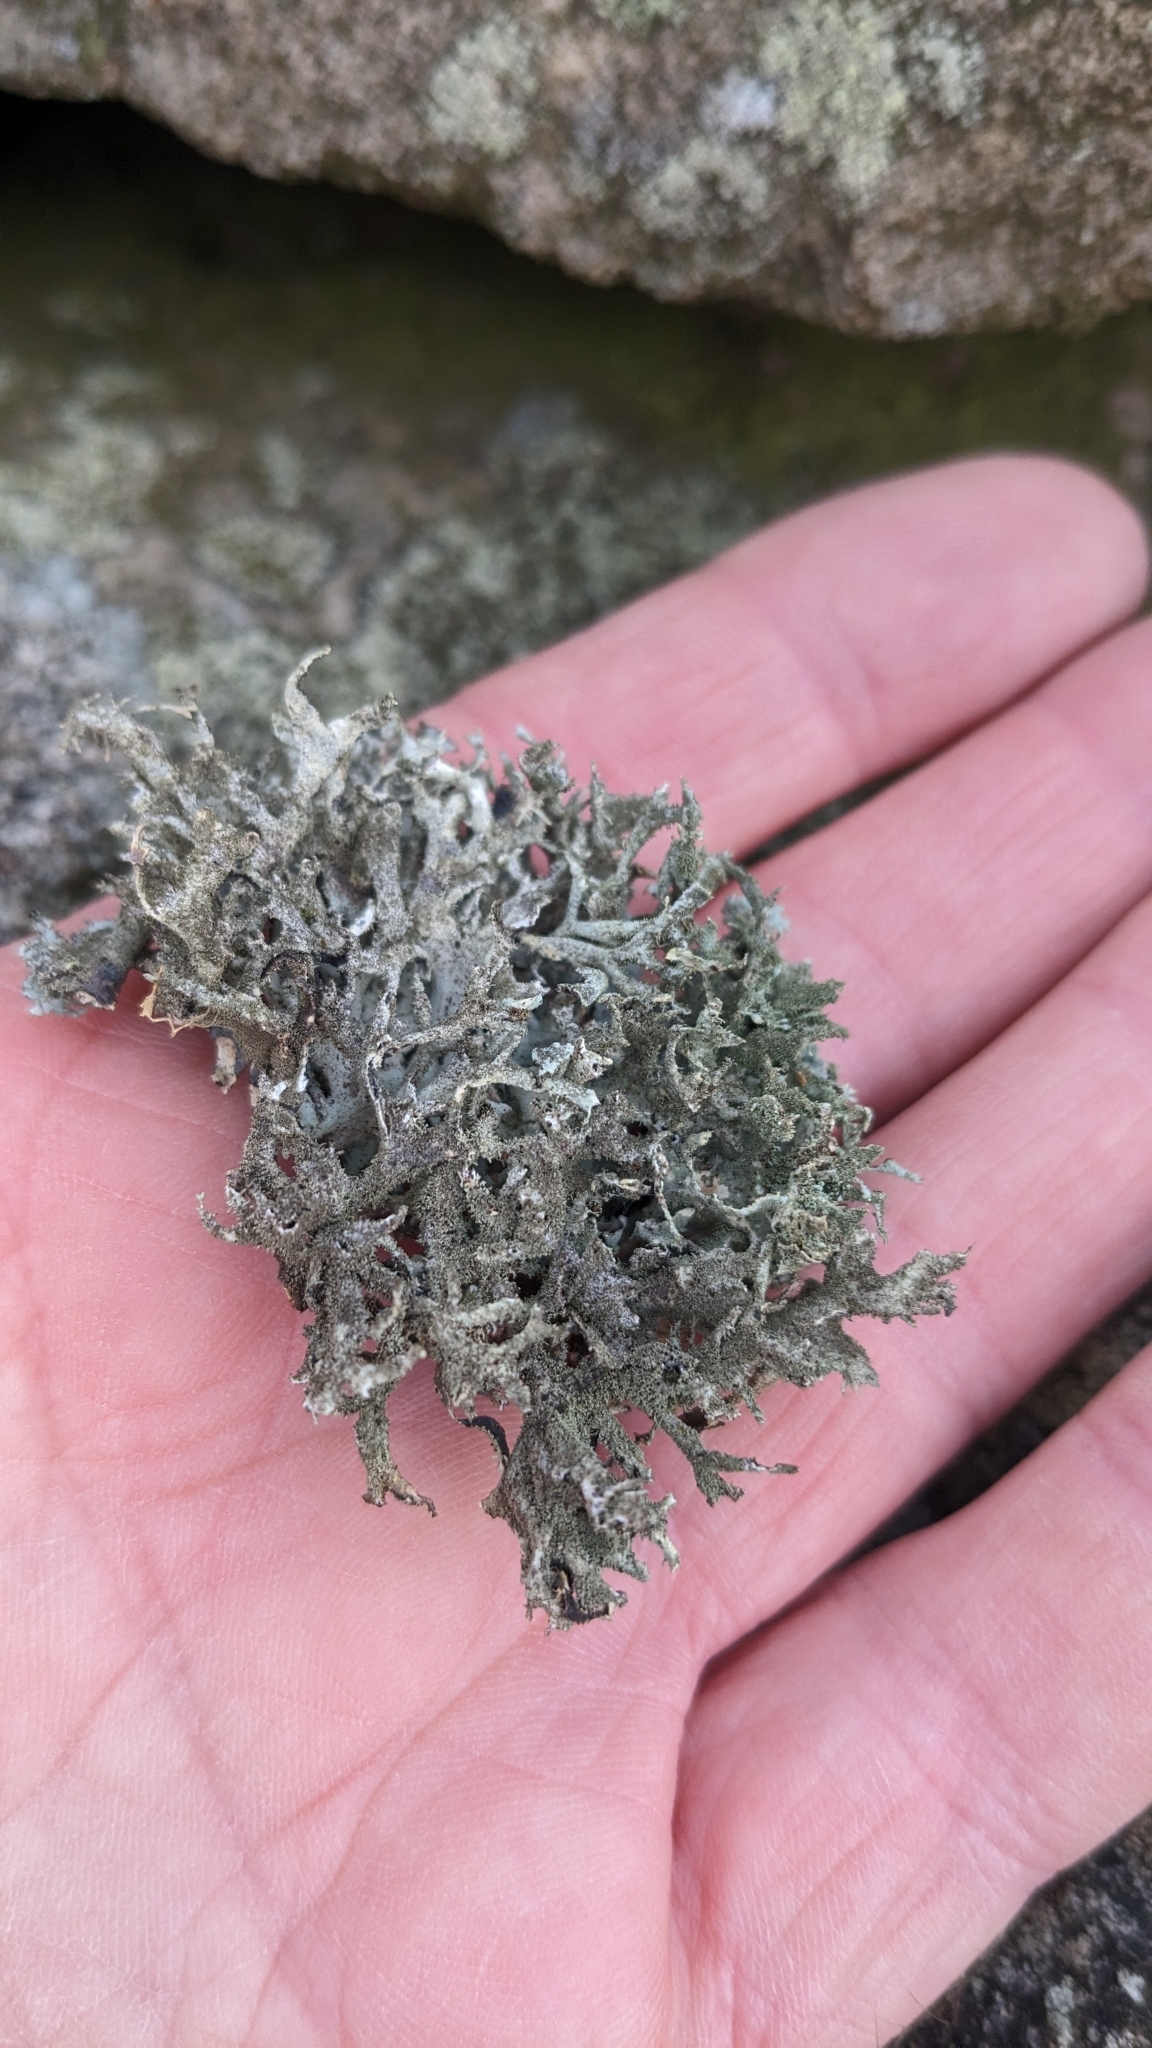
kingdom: Fungi
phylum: Ascomycota
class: Lecanoromycetes
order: Lecanorales
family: Parmeliaceae
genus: Pseudevernia
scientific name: Pseudevernia furfuracea
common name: Tree moss
